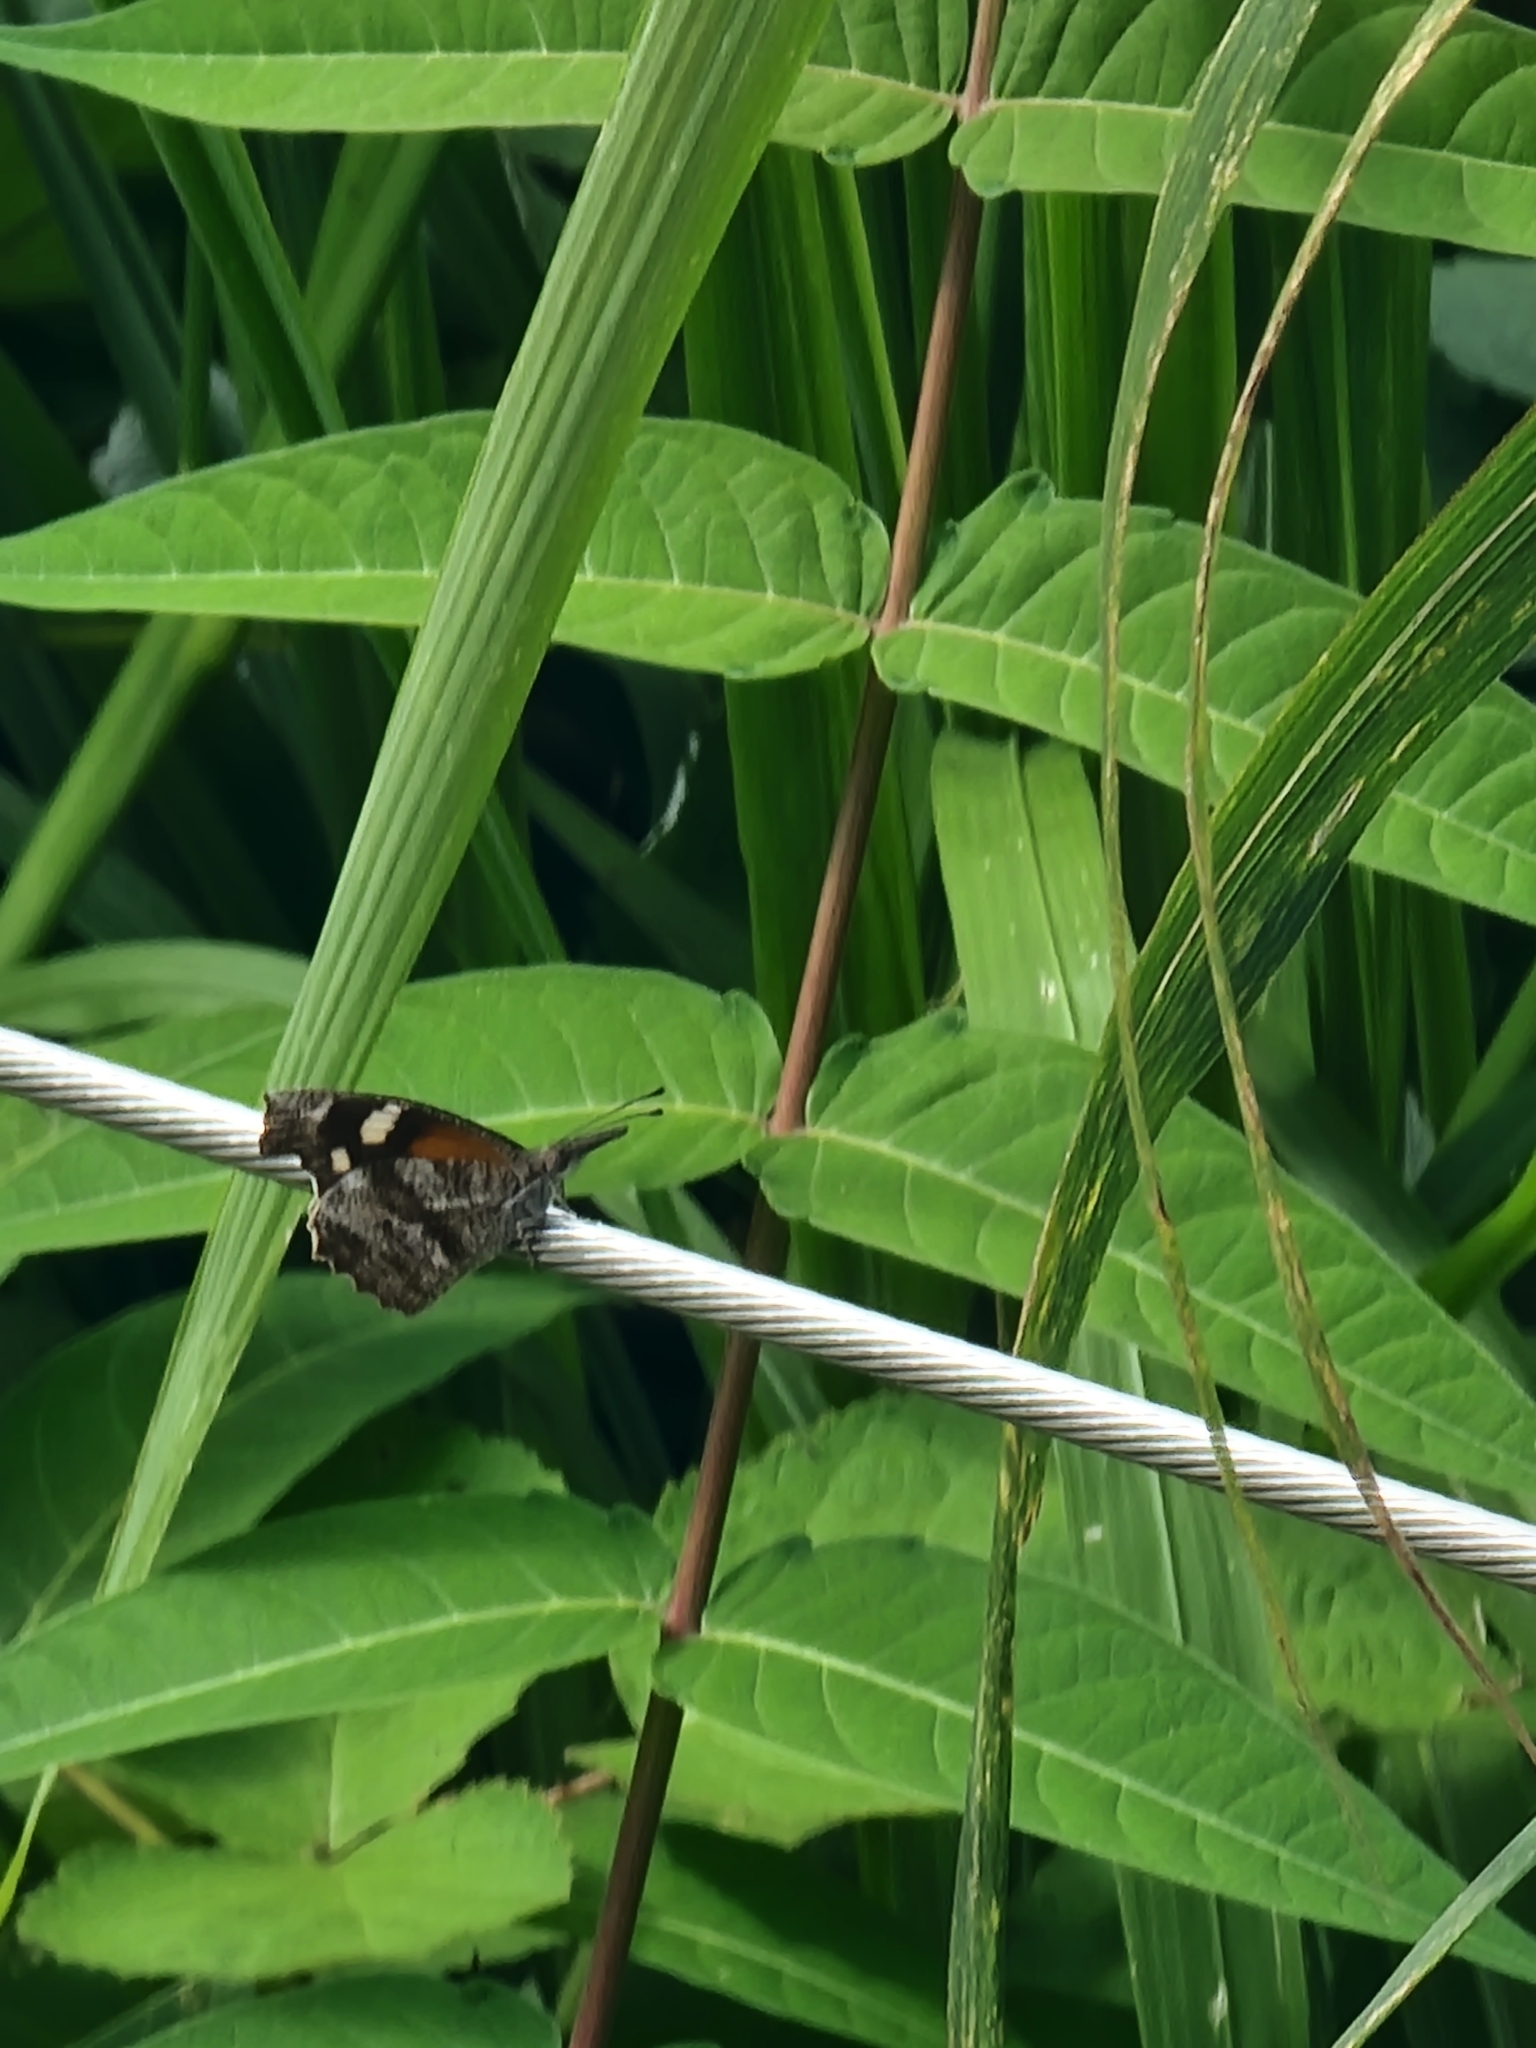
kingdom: Animalia
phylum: Arthropoda
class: Insecta
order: Lepidoptera
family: Nymphalidae
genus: Libytheana
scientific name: Libytheana carinenta
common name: American snout
